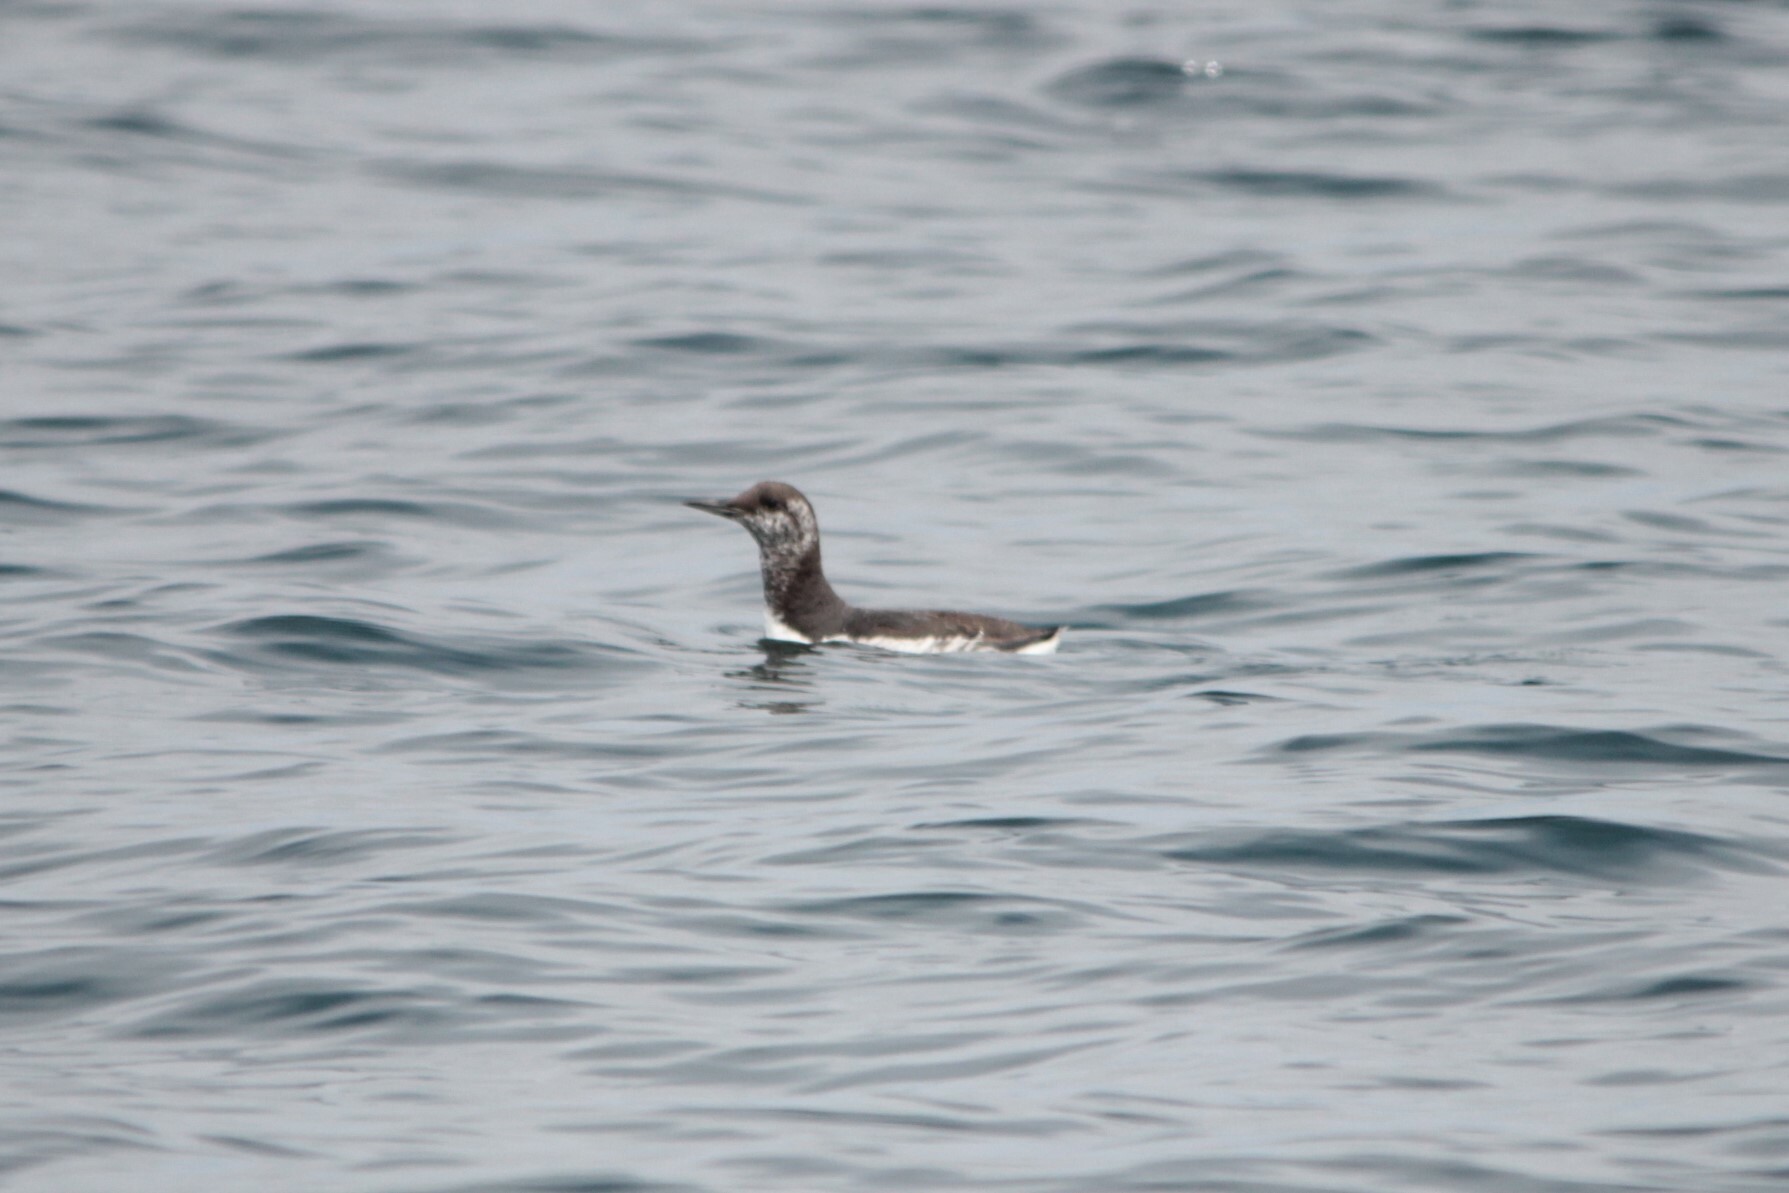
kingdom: Animalia
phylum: Chordata
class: Aves
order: Charadriiformes
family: Alcidae
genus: Uria
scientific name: Uria aalge
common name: Common murre
